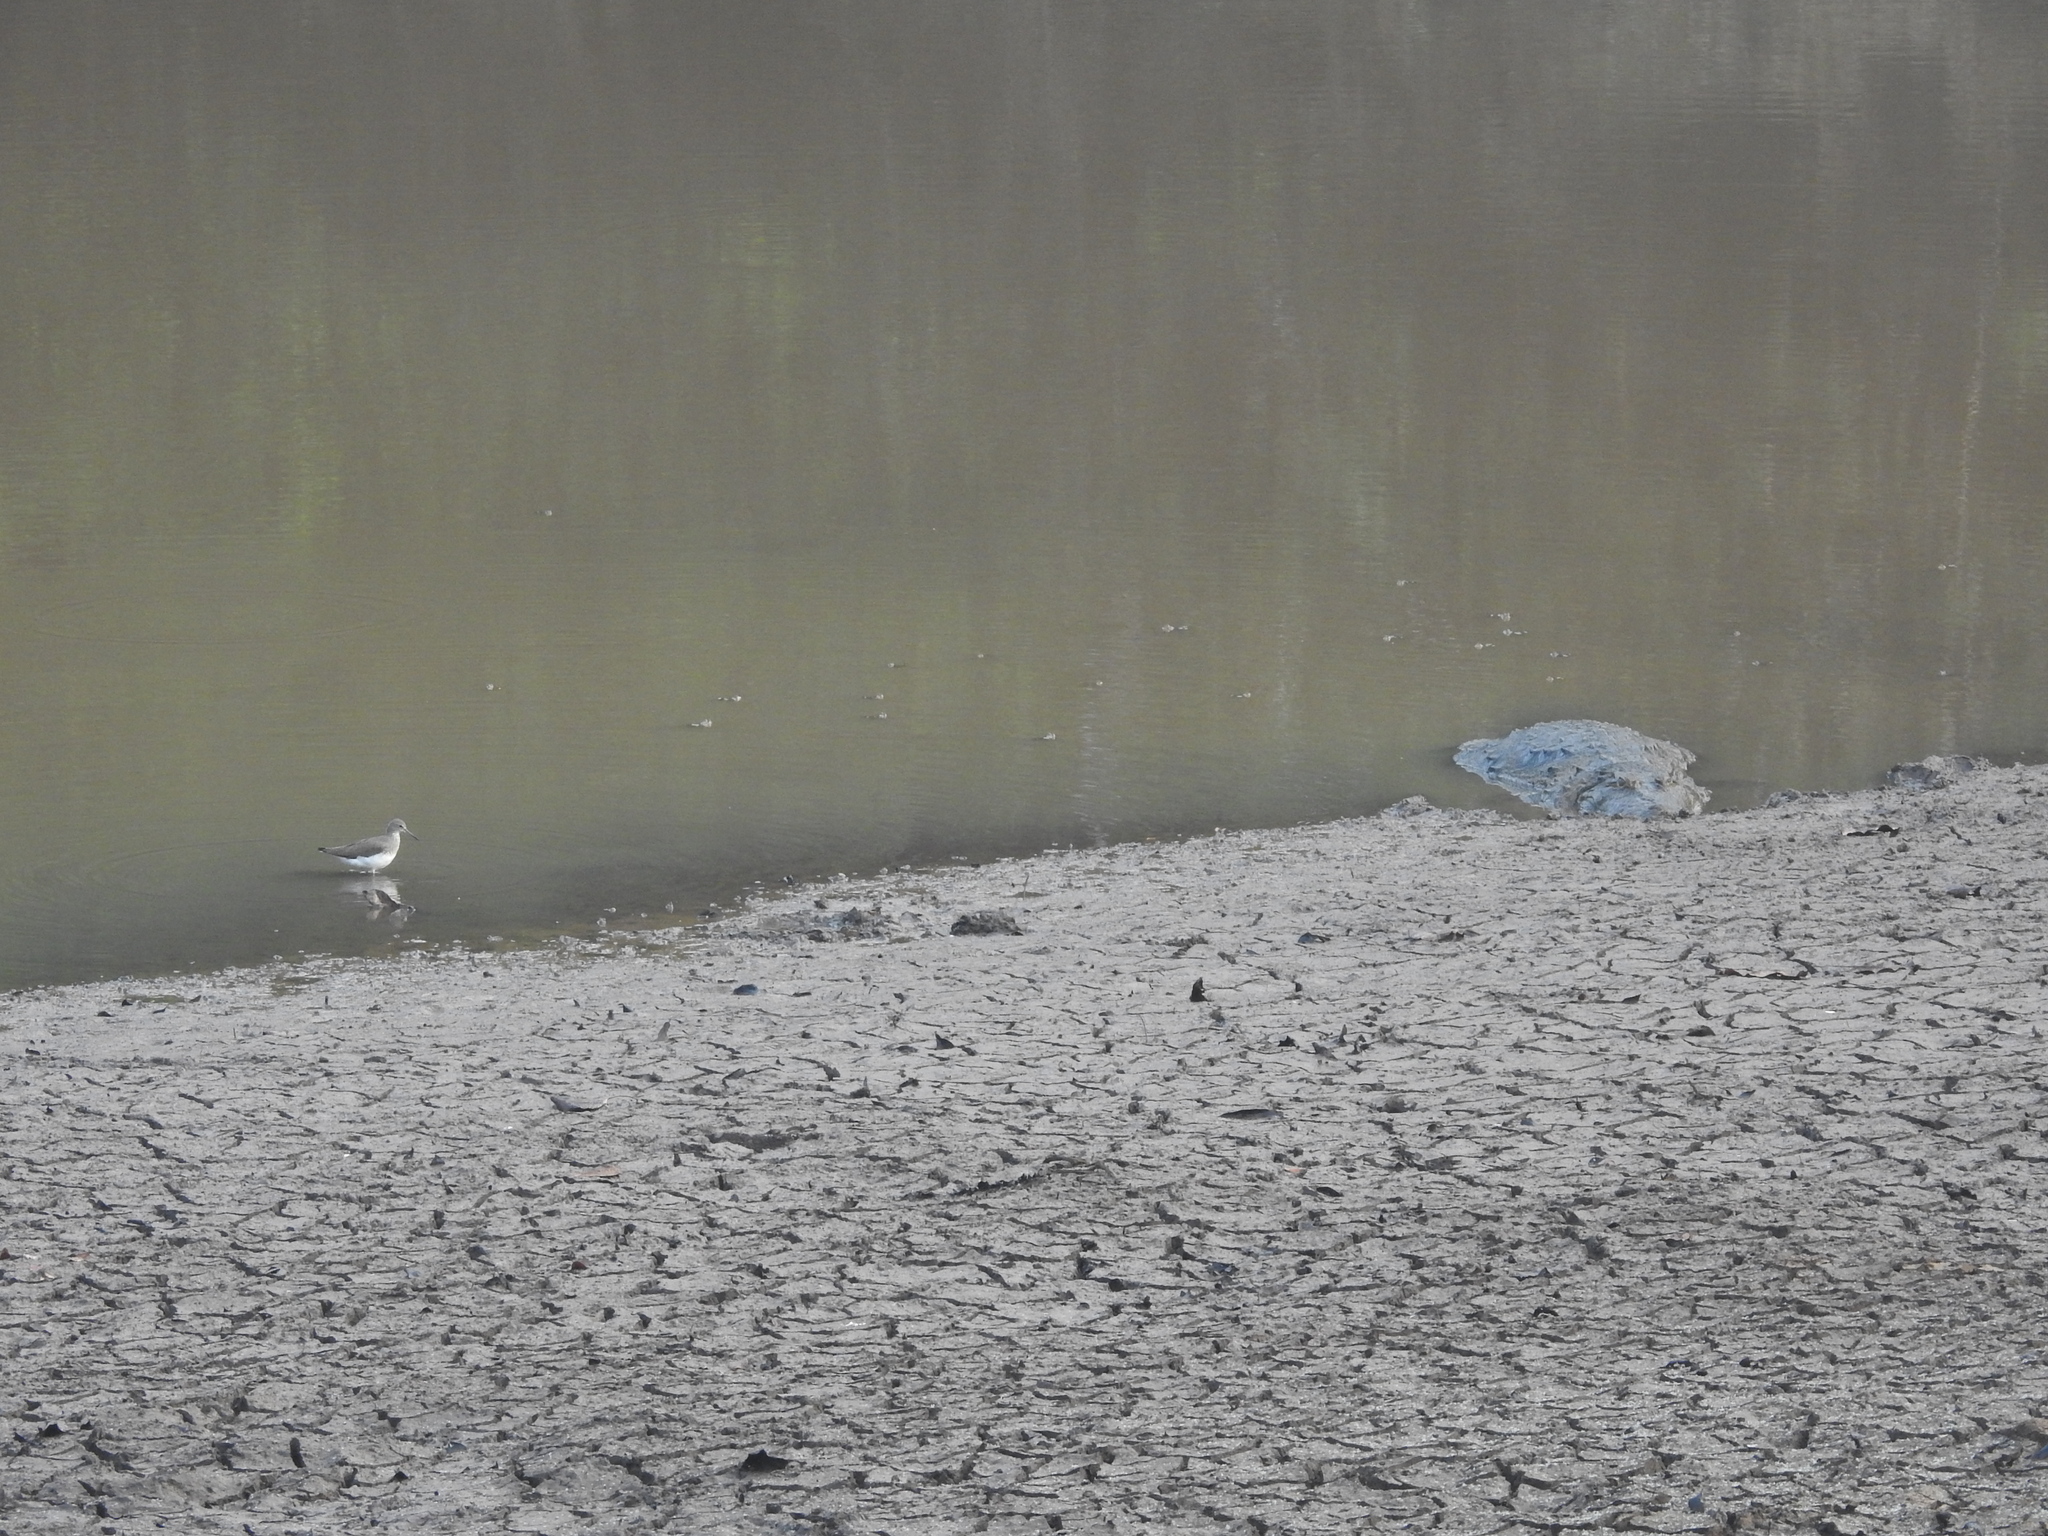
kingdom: Animalia
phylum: Chordata
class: Crocodylia
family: Crocodylidae
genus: Crocodylus
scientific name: Crocodylus palustris
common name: Mugger crocodile
